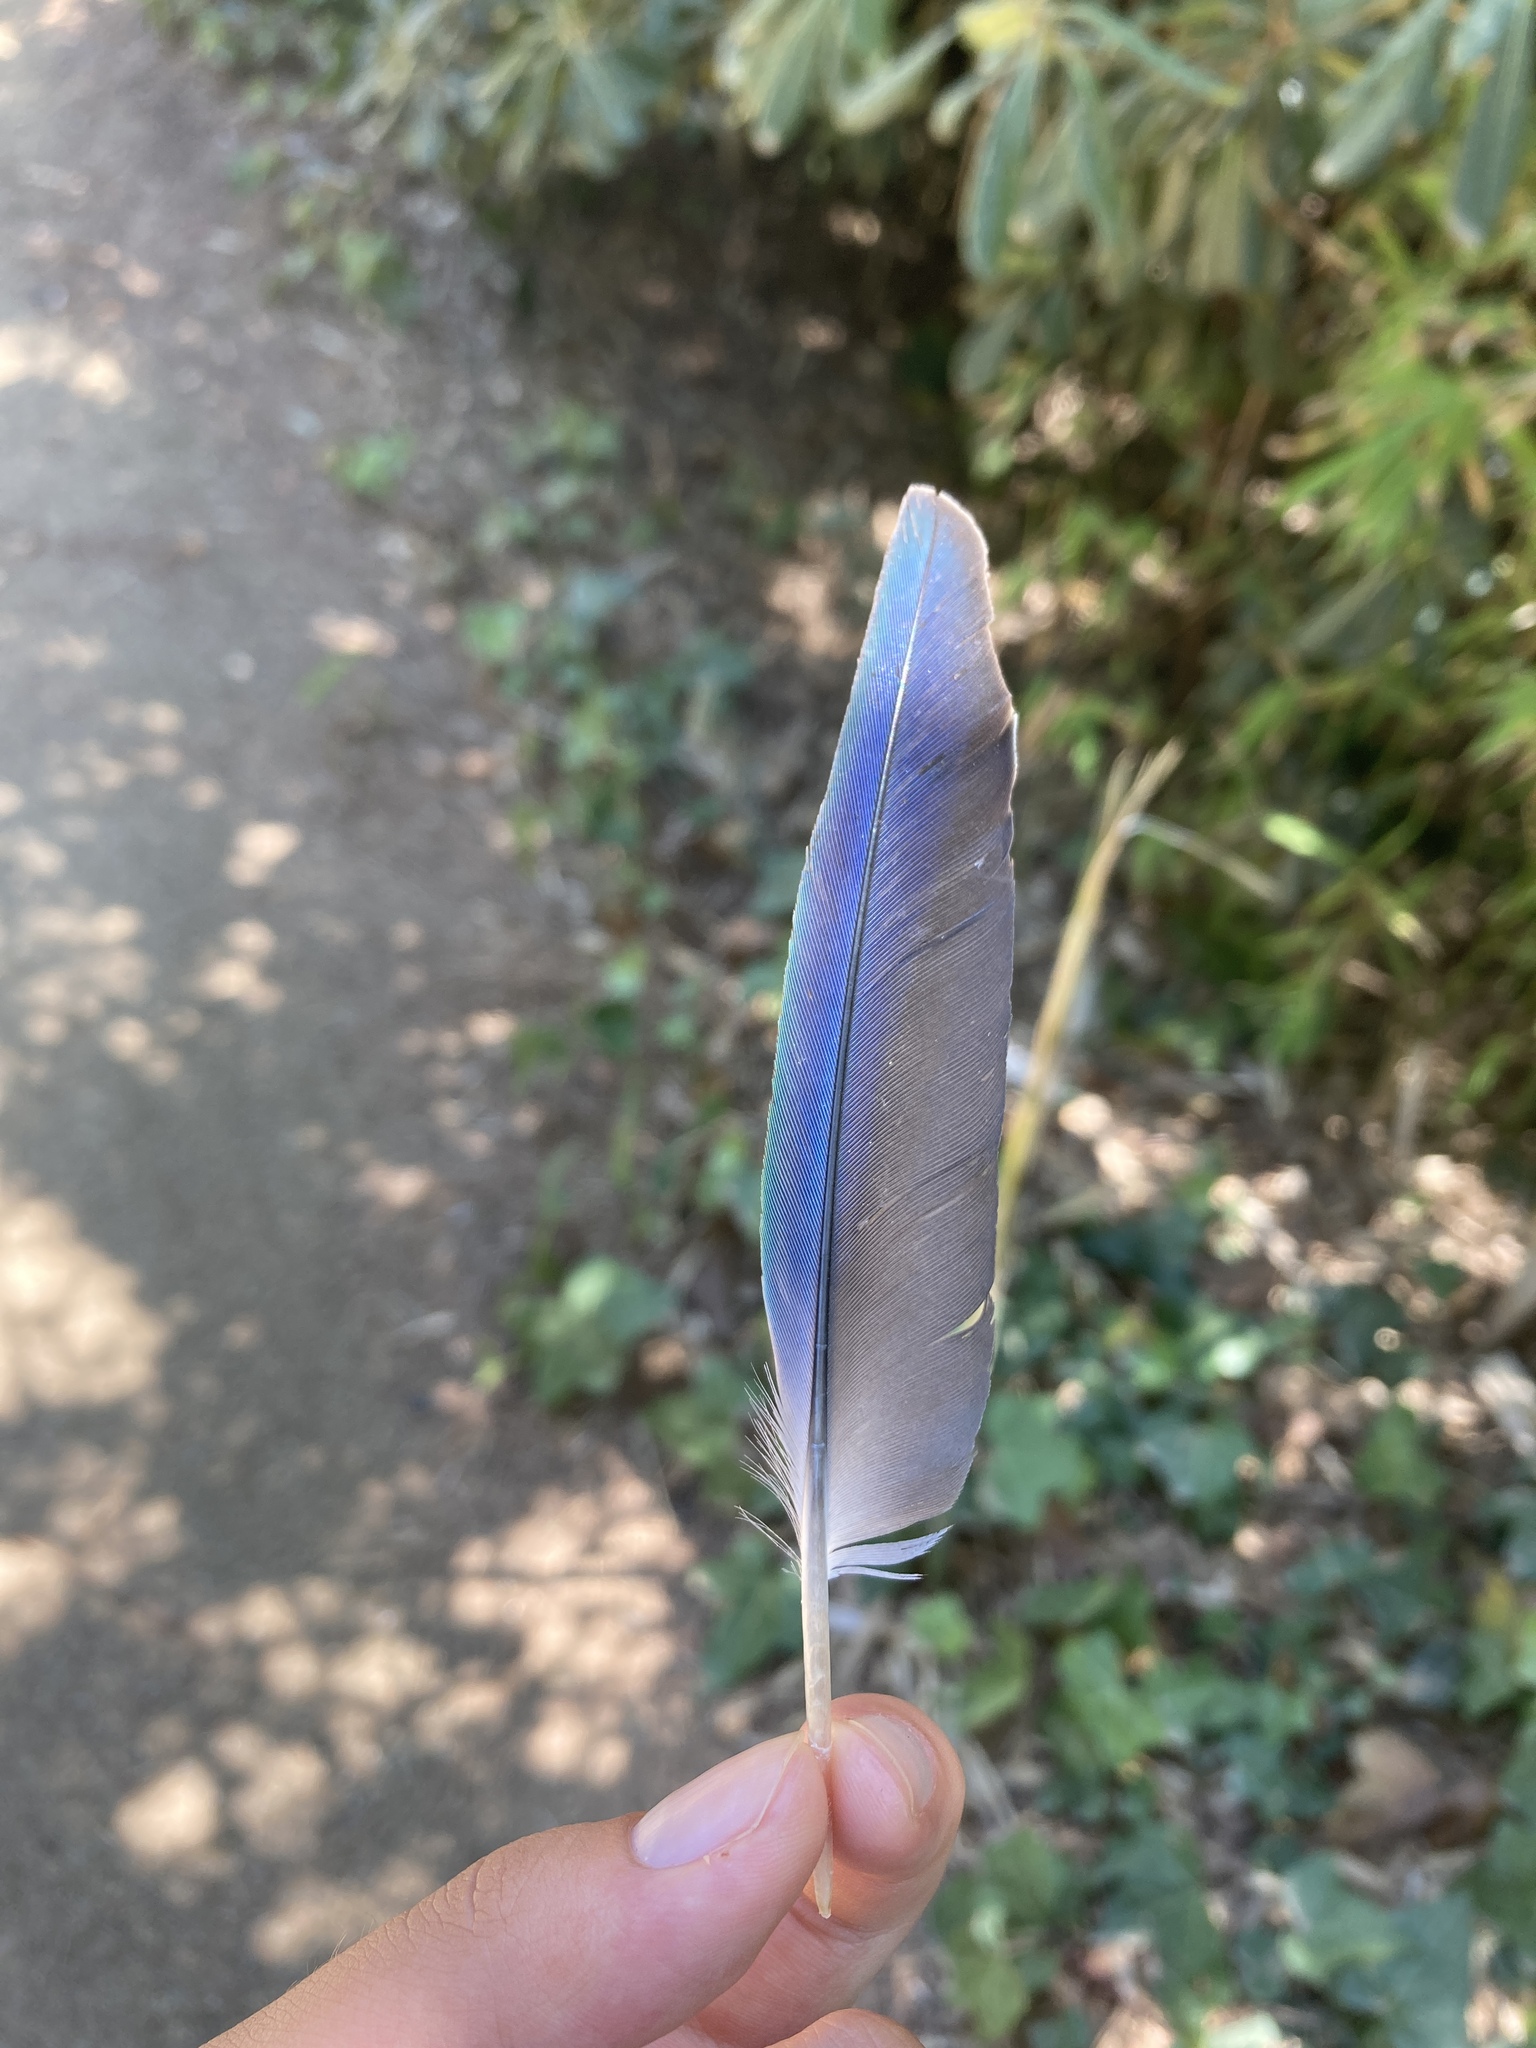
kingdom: Animalia
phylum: Chordata
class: Aves
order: Psittaciformes
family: Psittacidae
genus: Myiopsitta
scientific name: Myiopsitta monachus
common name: Monk parakeet
